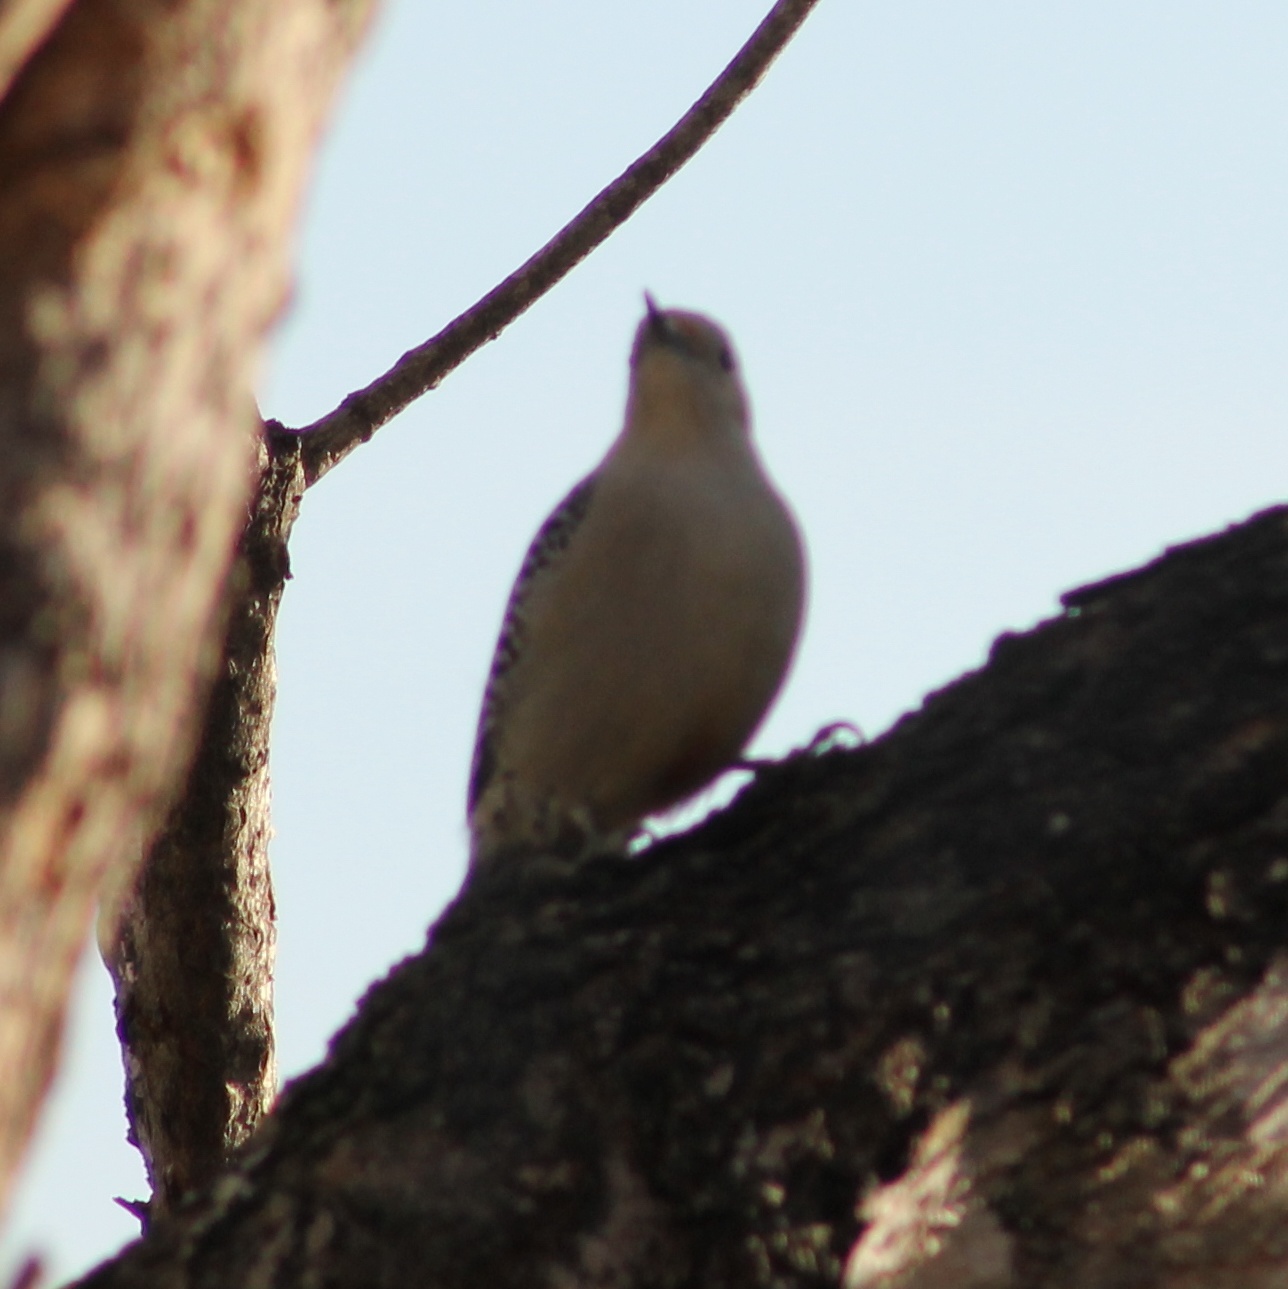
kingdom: Animalia
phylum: Chordata
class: Aves
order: Piciformes
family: Picidae
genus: Melanerpes
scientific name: Melanerpes carolinus
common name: Red-bellied woodpecker
